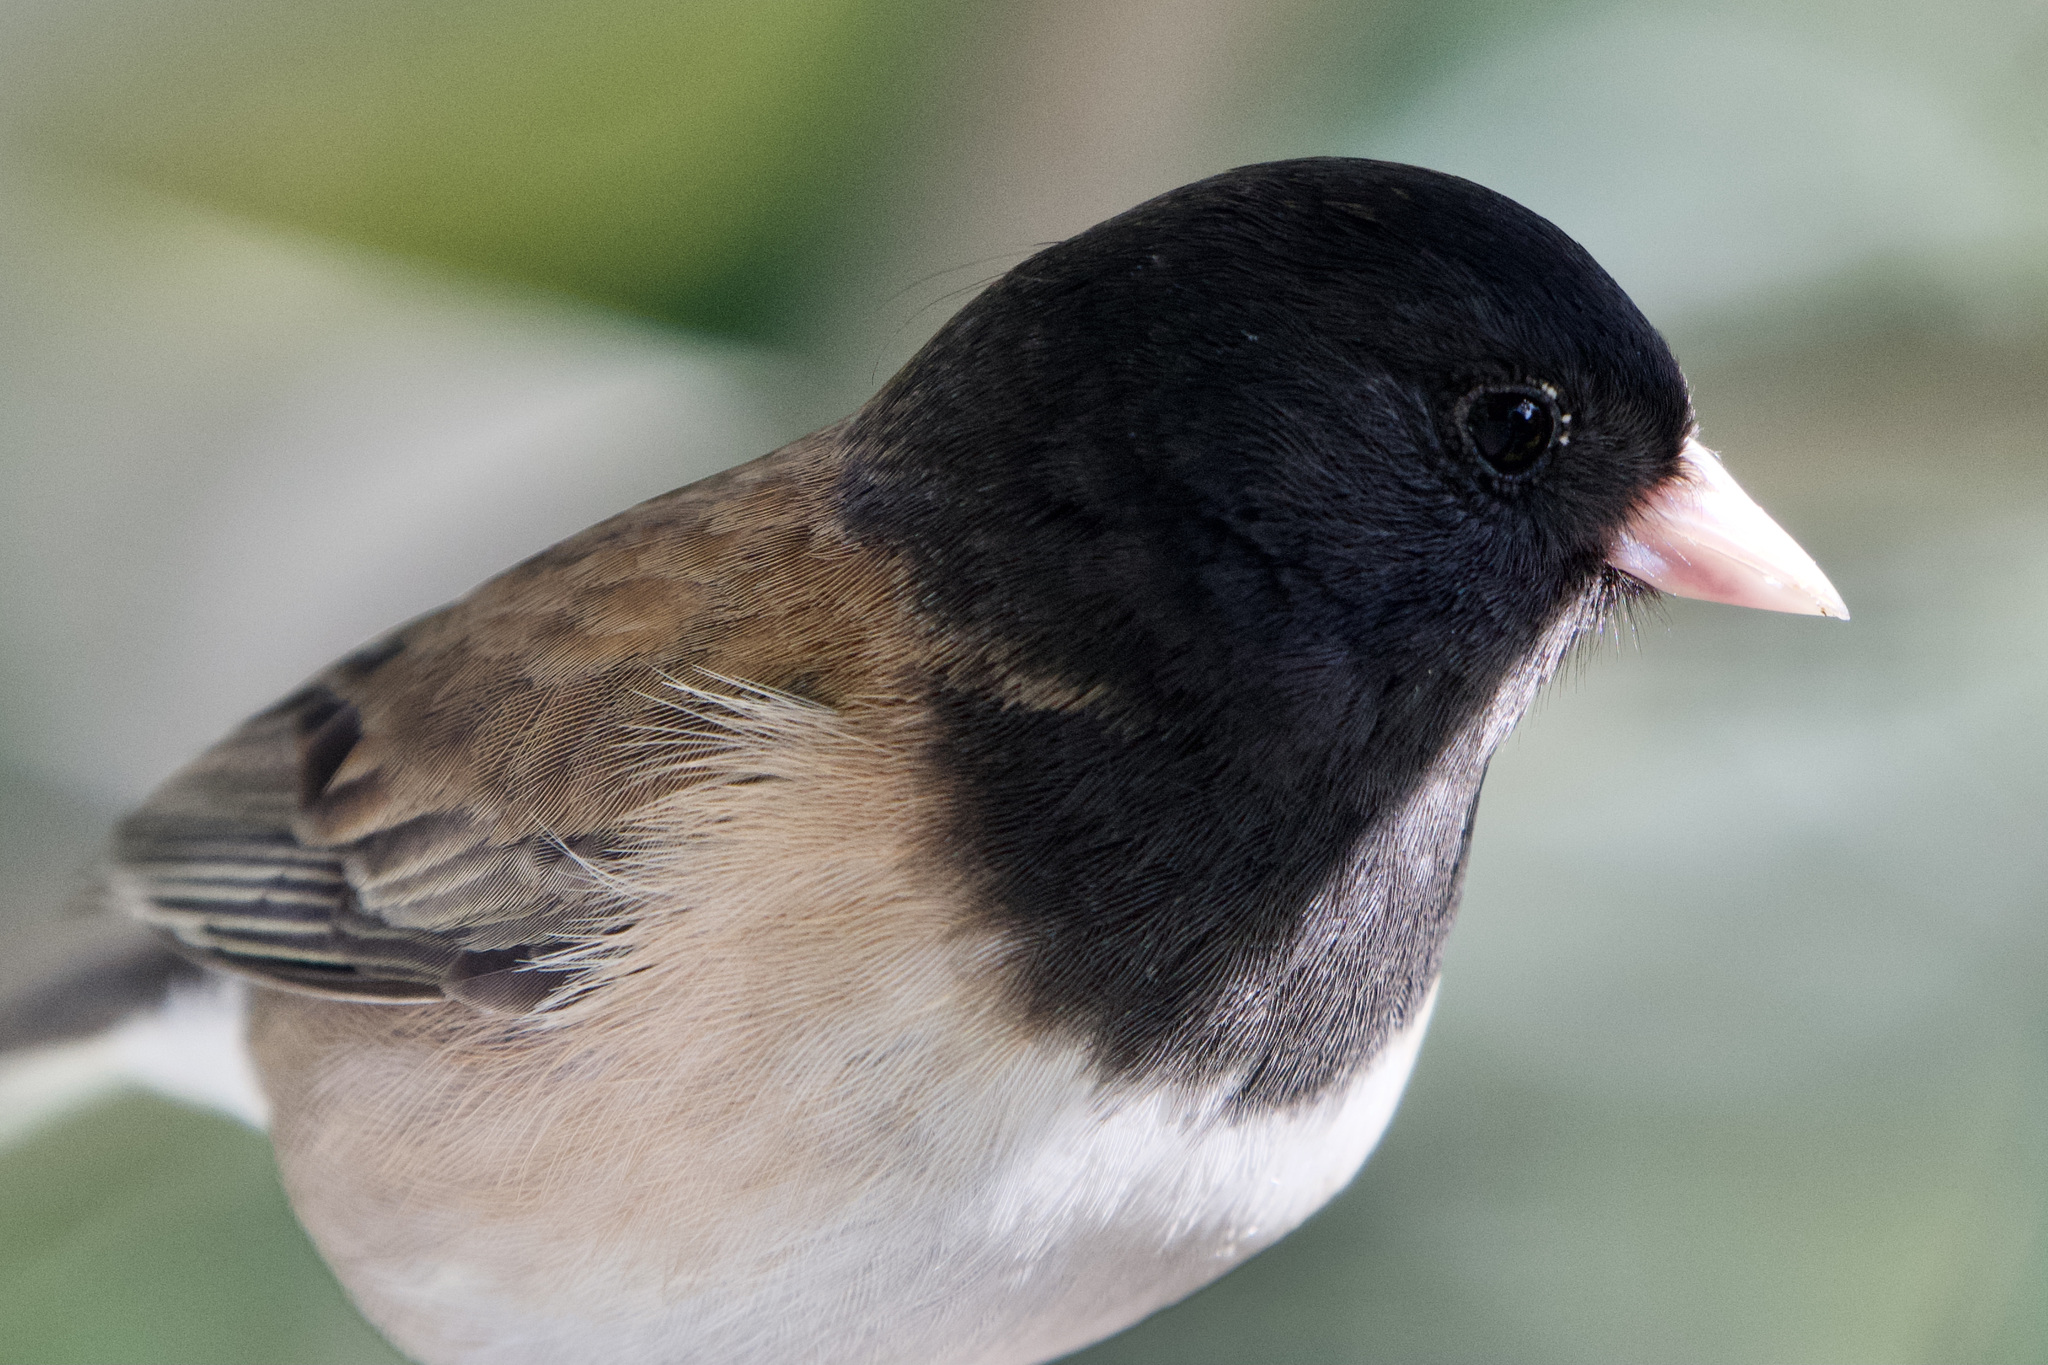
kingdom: Animalia
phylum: Chordata
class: Aves
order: Passeriformes
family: Passerellidae
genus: Junco
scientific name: Junco hyemalis
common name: Dark-eyed junco
